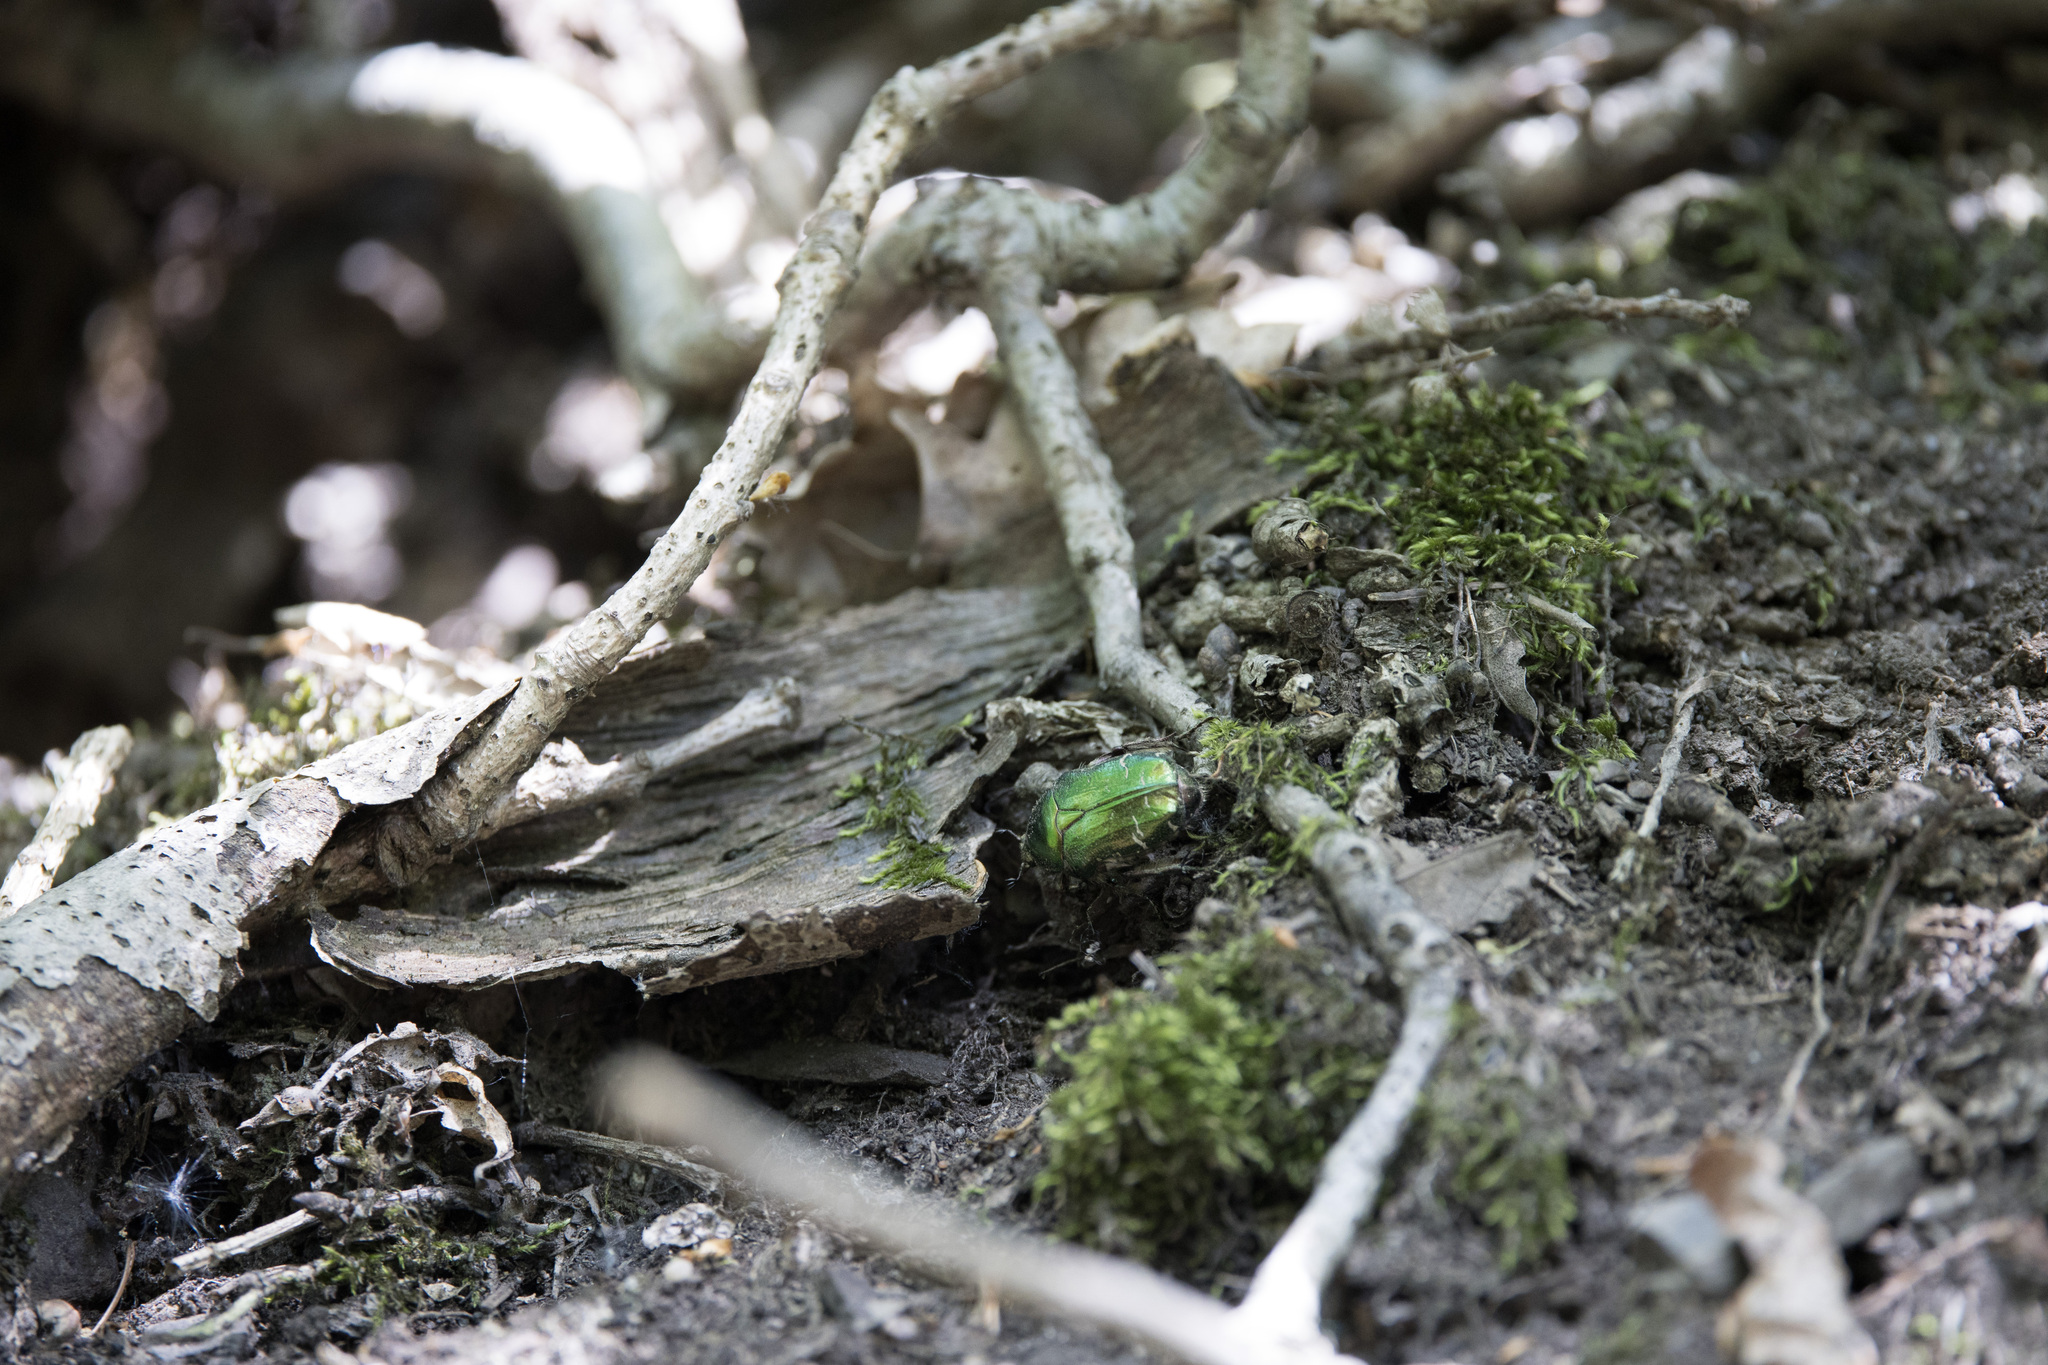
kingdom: Animalia
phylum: Arthropoda
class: Insecta
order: Coleoptera
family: Scarabaeidae
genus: Cetonia
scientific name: Cetonia aurata
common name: Rose chafer
